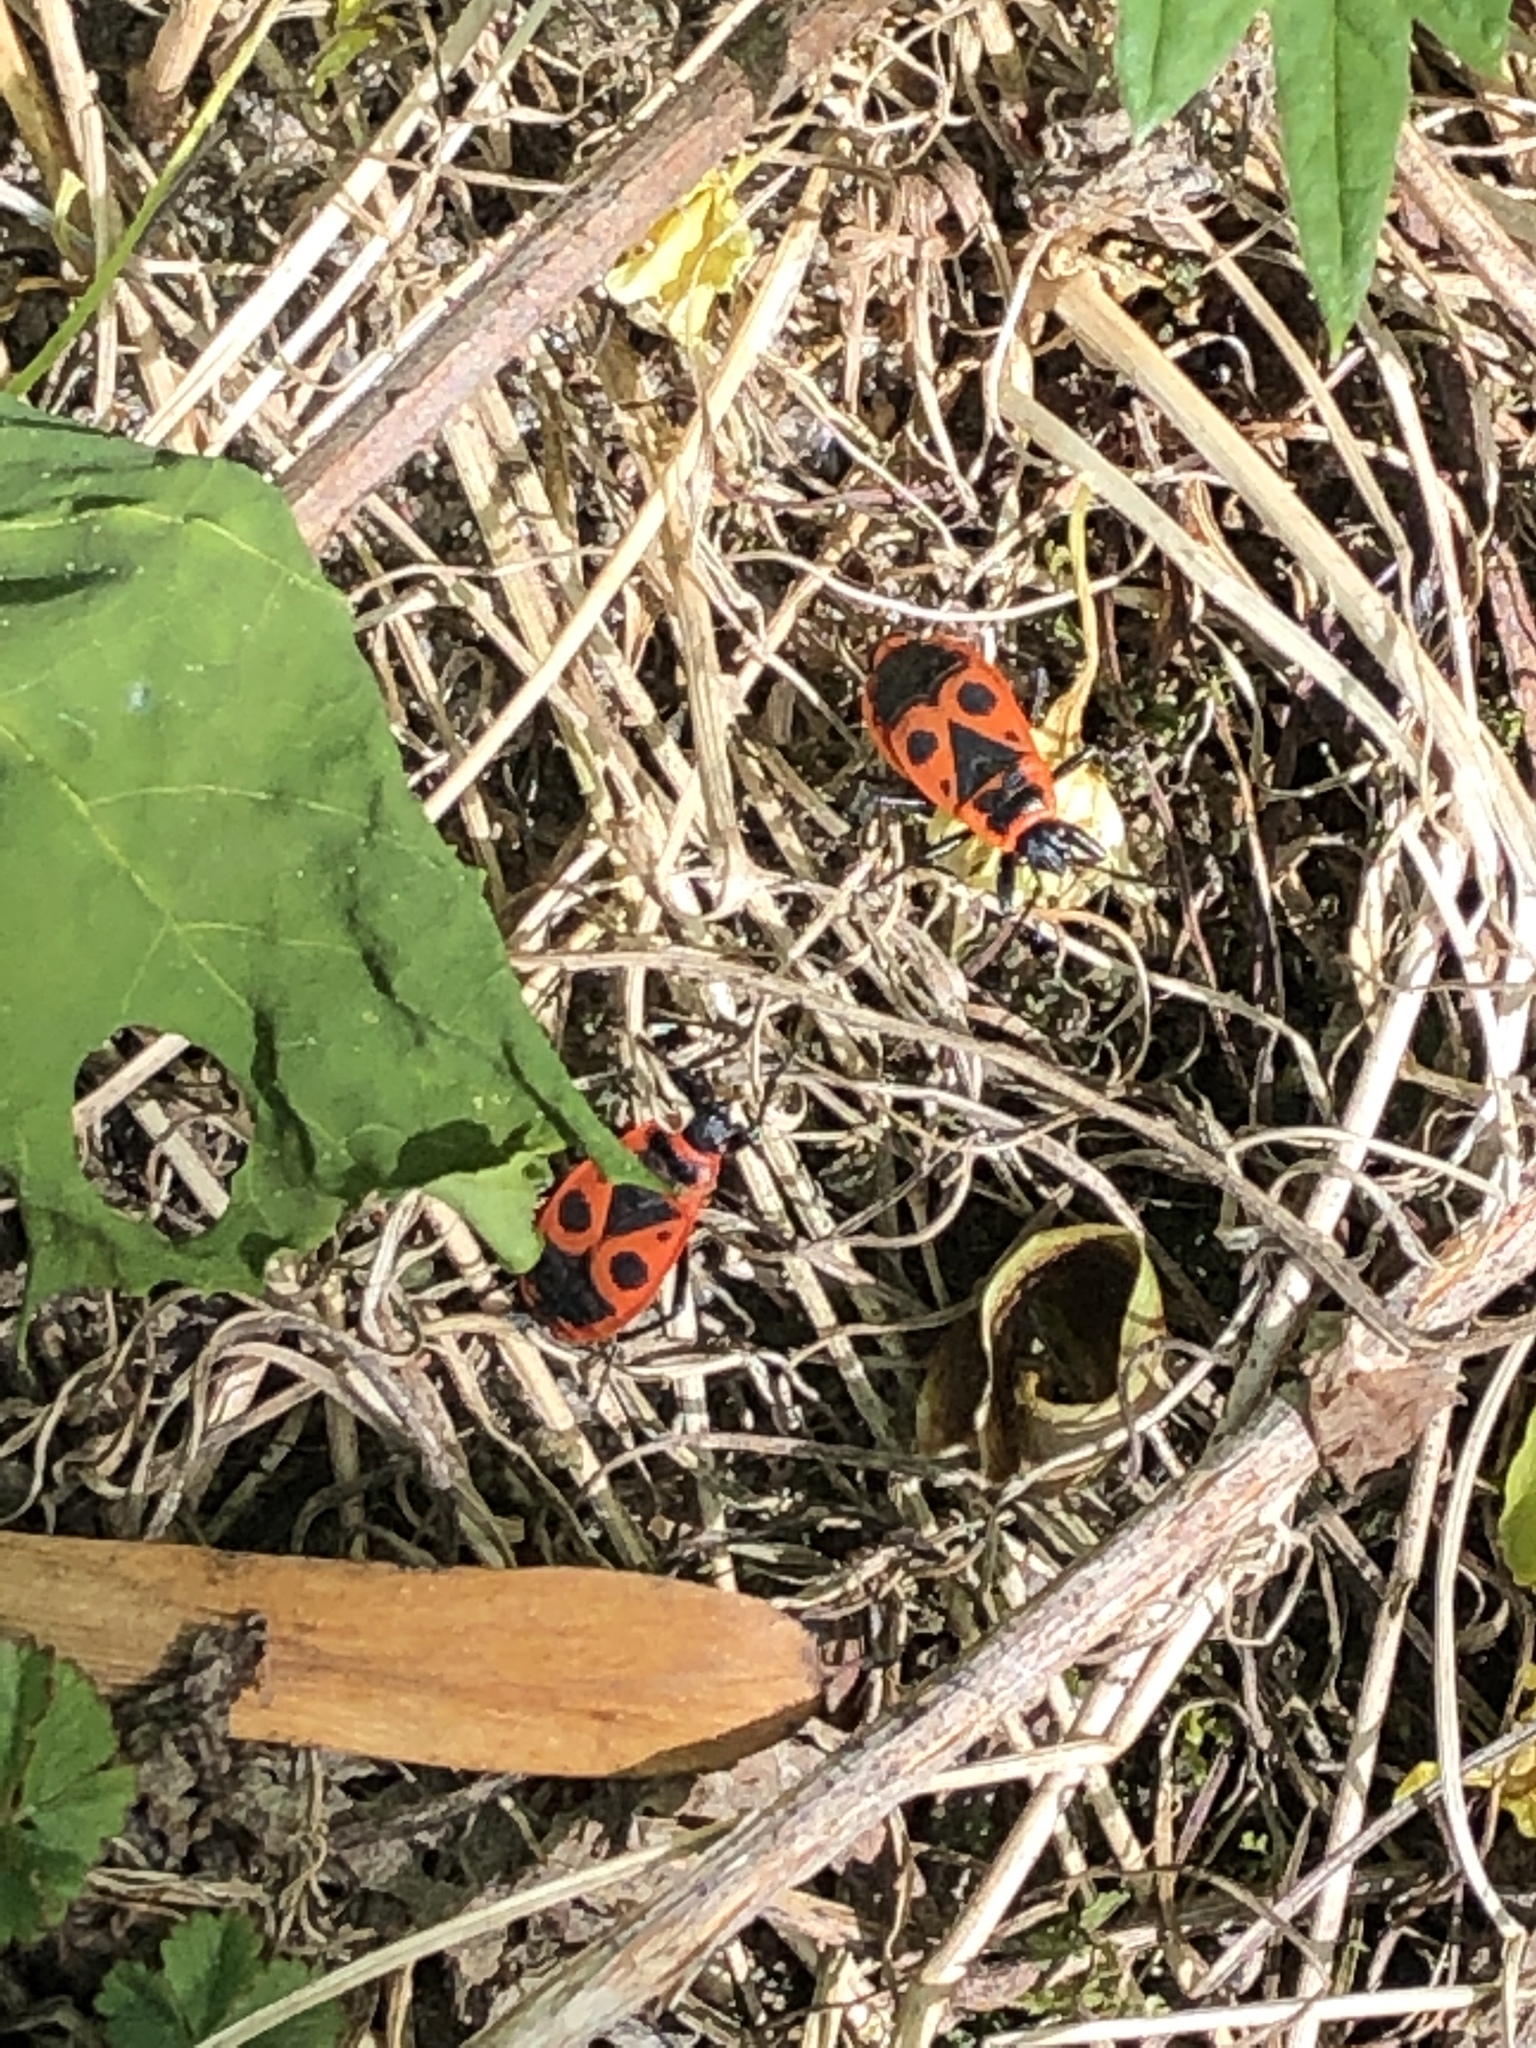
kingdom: Animalia
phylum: Arthropoda
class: Insecta
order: Hemiptera
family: Pyrrhocoridae
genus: Pyrrhocoris
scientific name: Pyrrhocoris apterus
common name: Firebug
